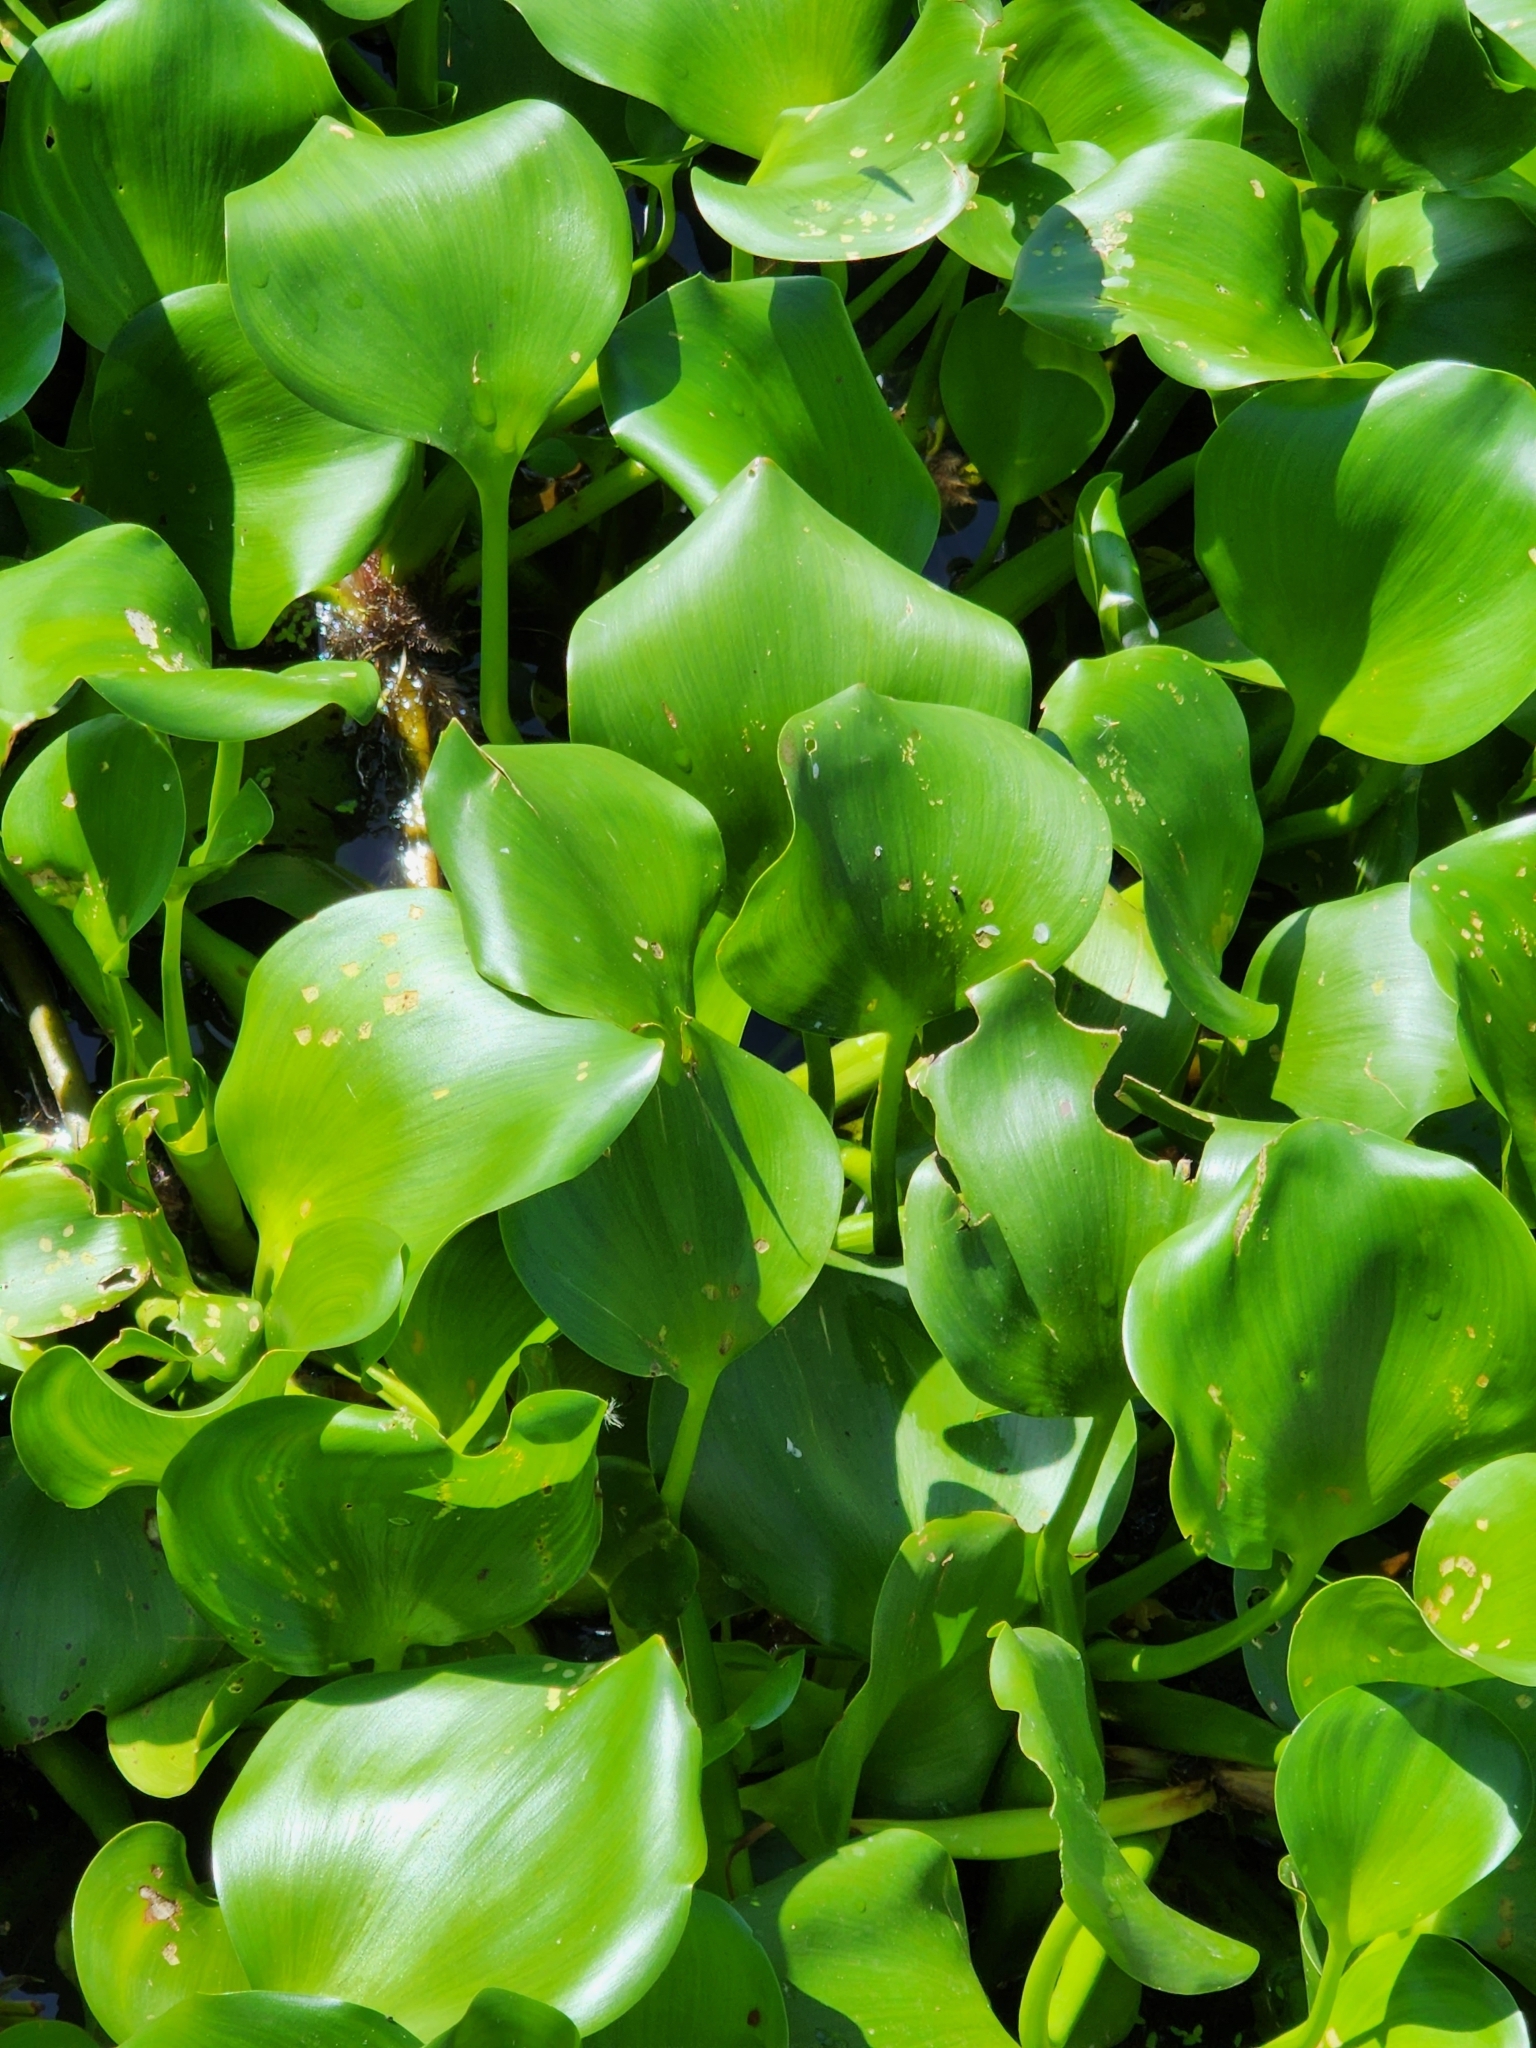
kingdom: Plantae
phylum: Tracheophyta
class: Liliopsida
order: Commelinales
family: Pontederiaceae
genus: Pontederia
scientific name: Pontederia crassipes
